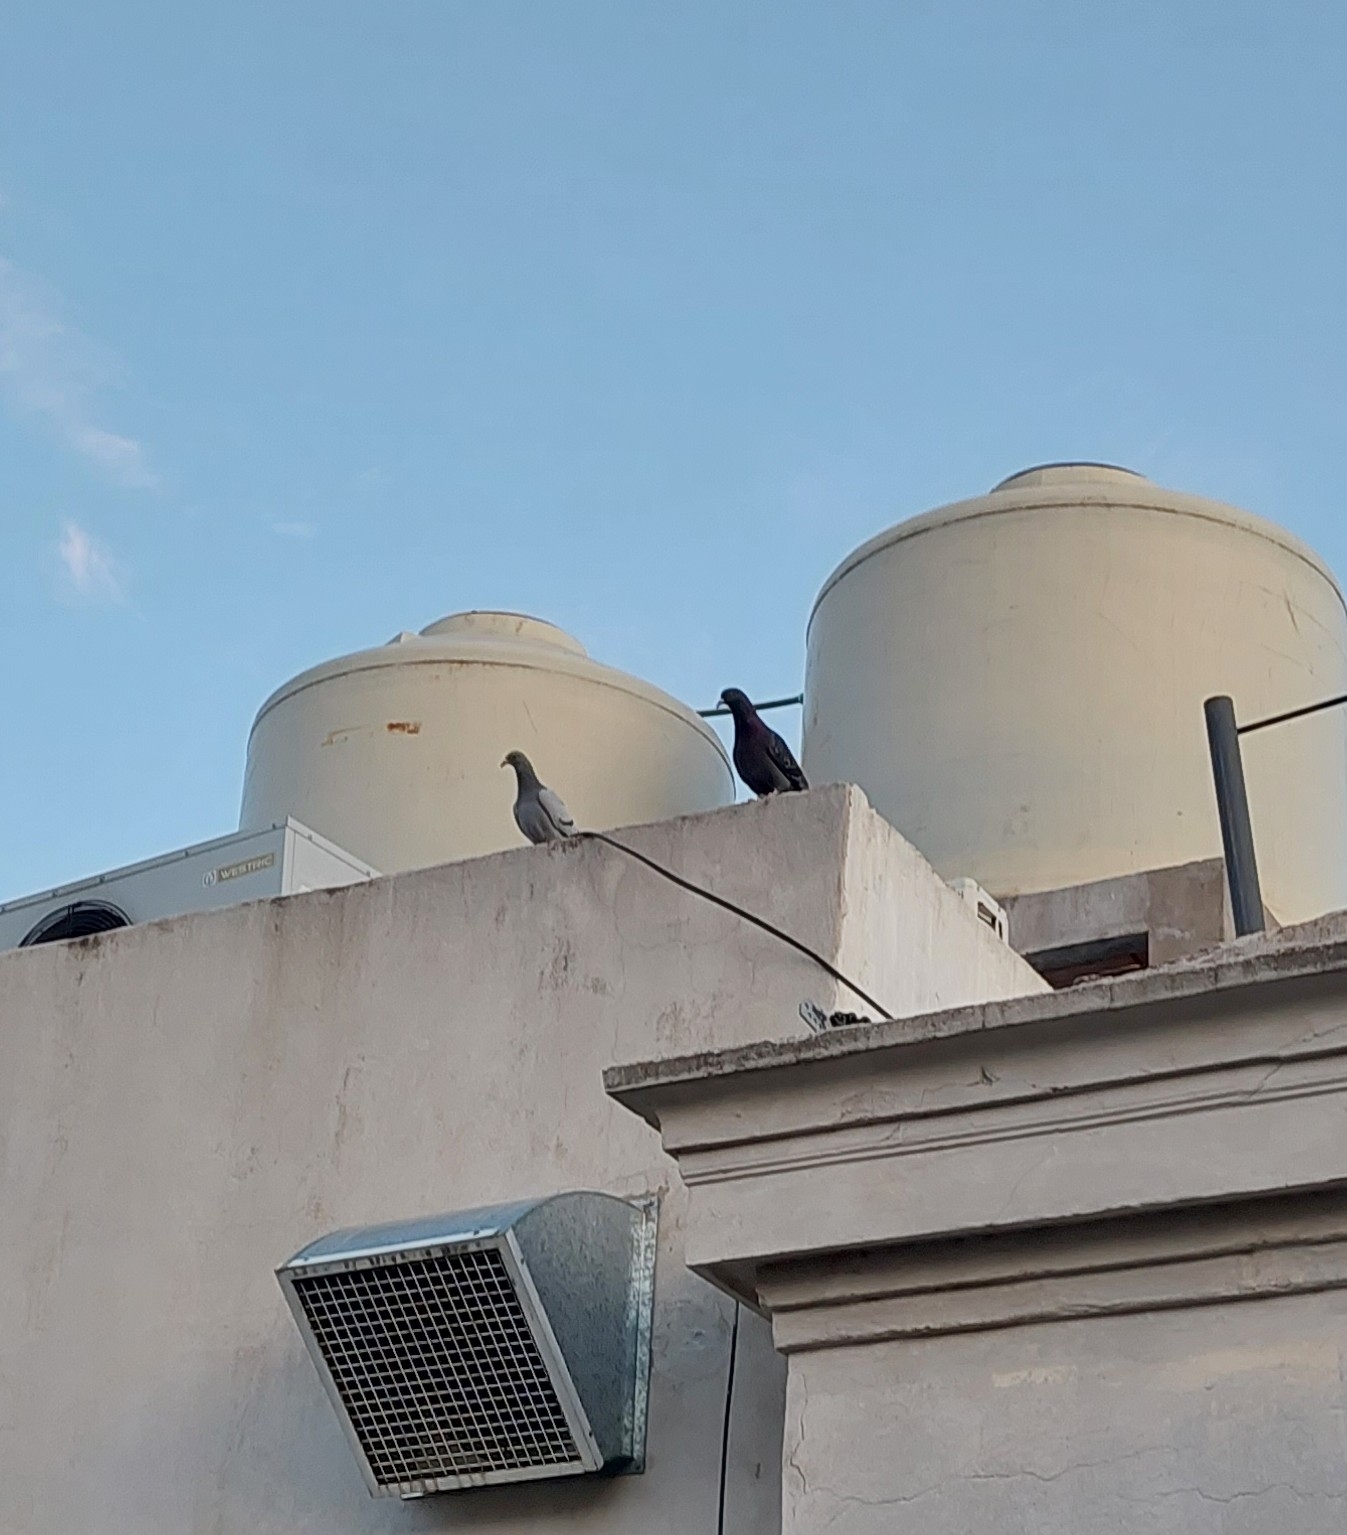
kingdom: Animalia
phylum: Chordata
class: Aves
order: Columbiformes
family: Columbidae
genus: Columba
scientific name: Columba livia
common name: Rock pigeon
